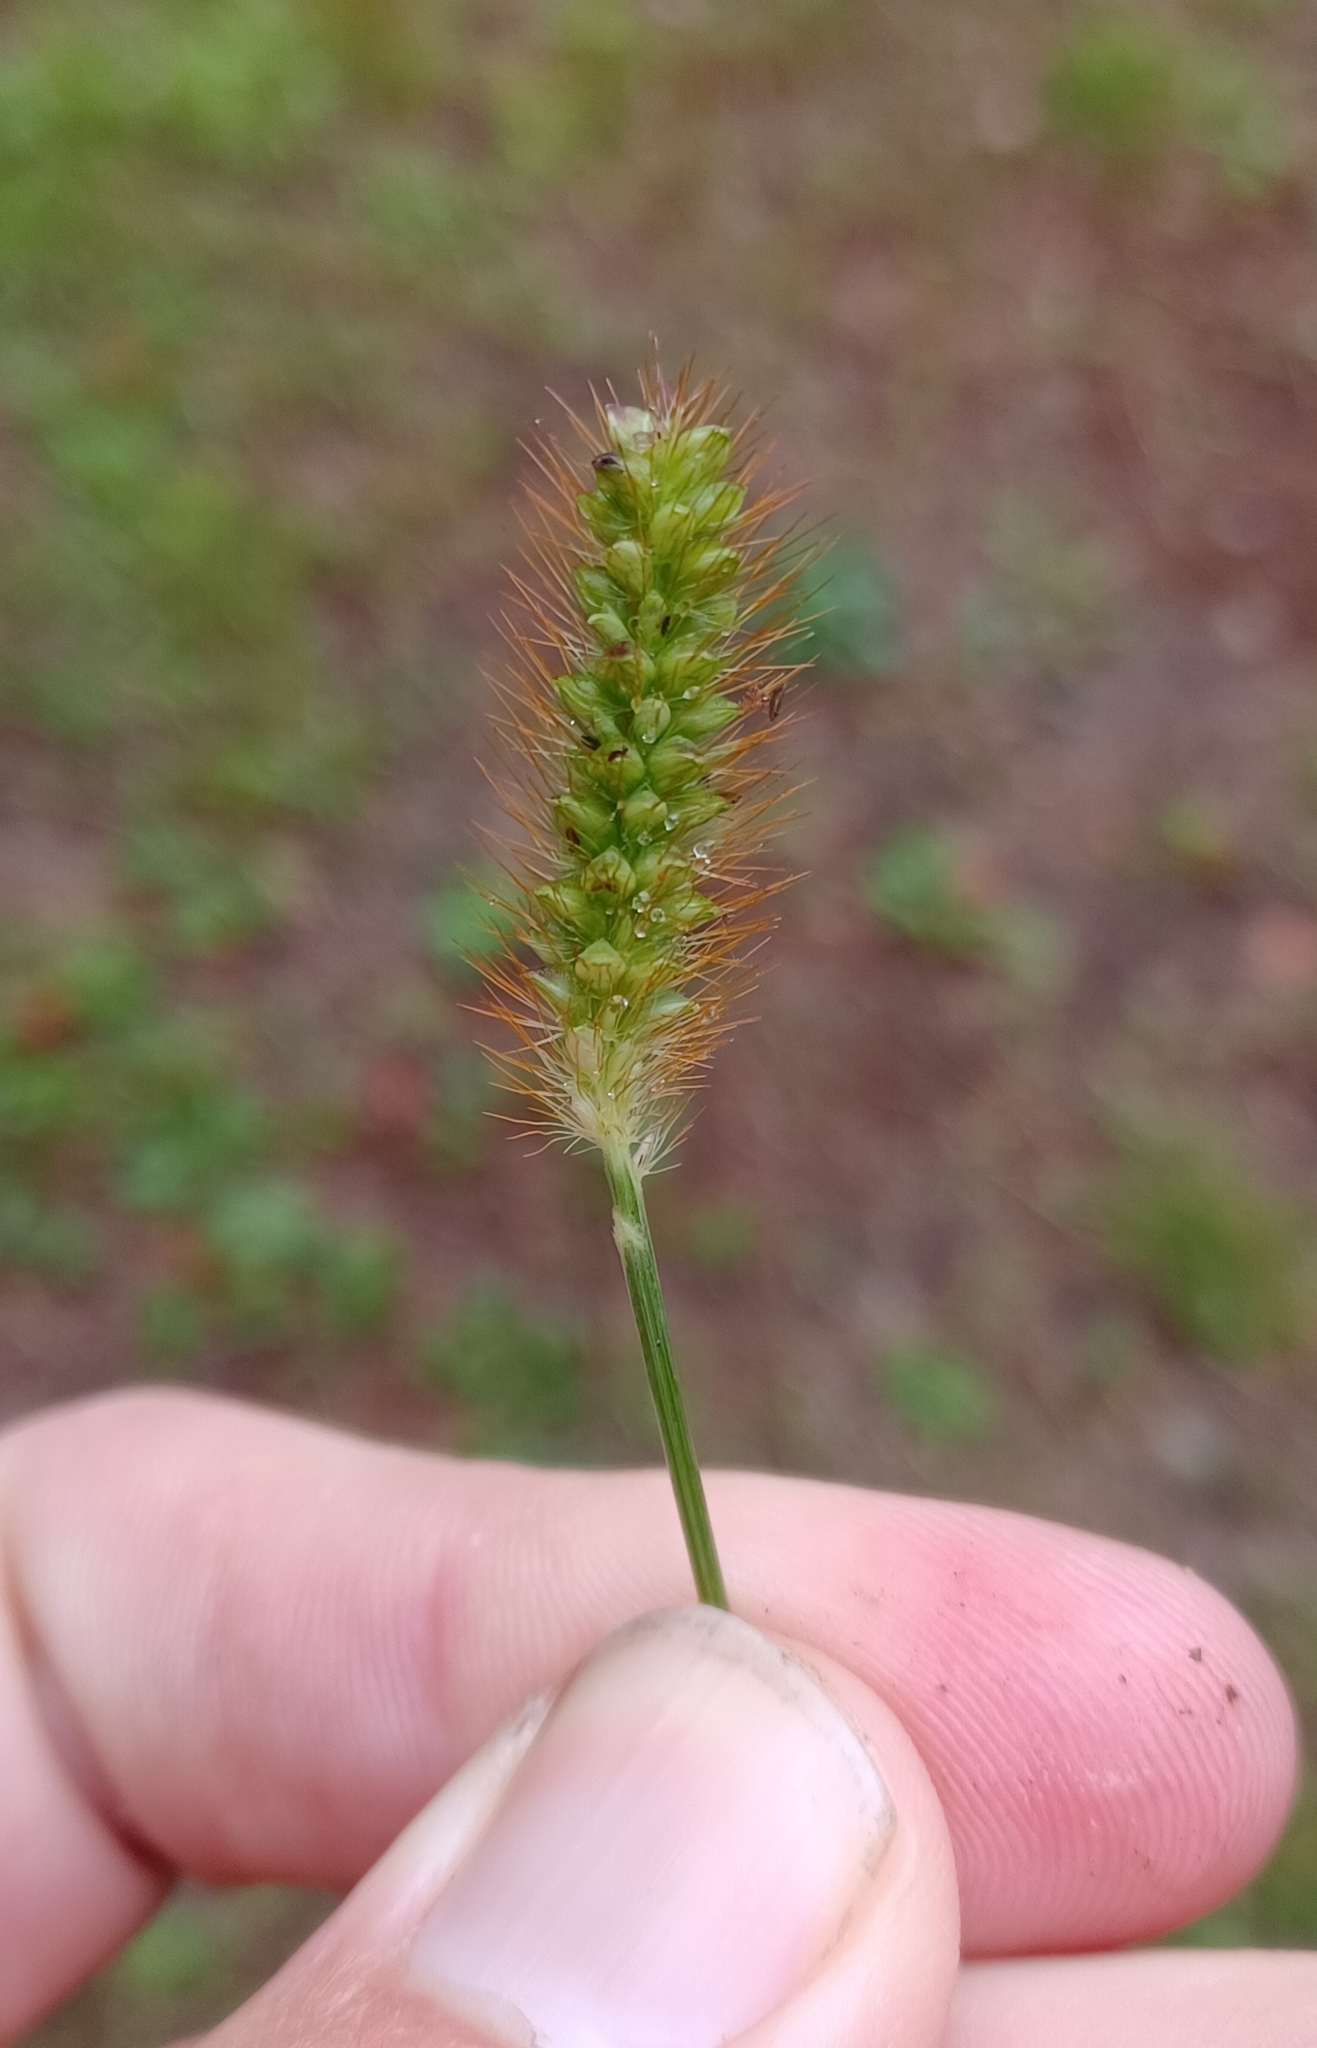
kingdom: Plantae
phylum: Tracheophyta
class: Liliopsida
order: Poales
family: Poaceae
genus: Setaria
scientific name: Setaria pumila
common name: Yellow bristle-grass
